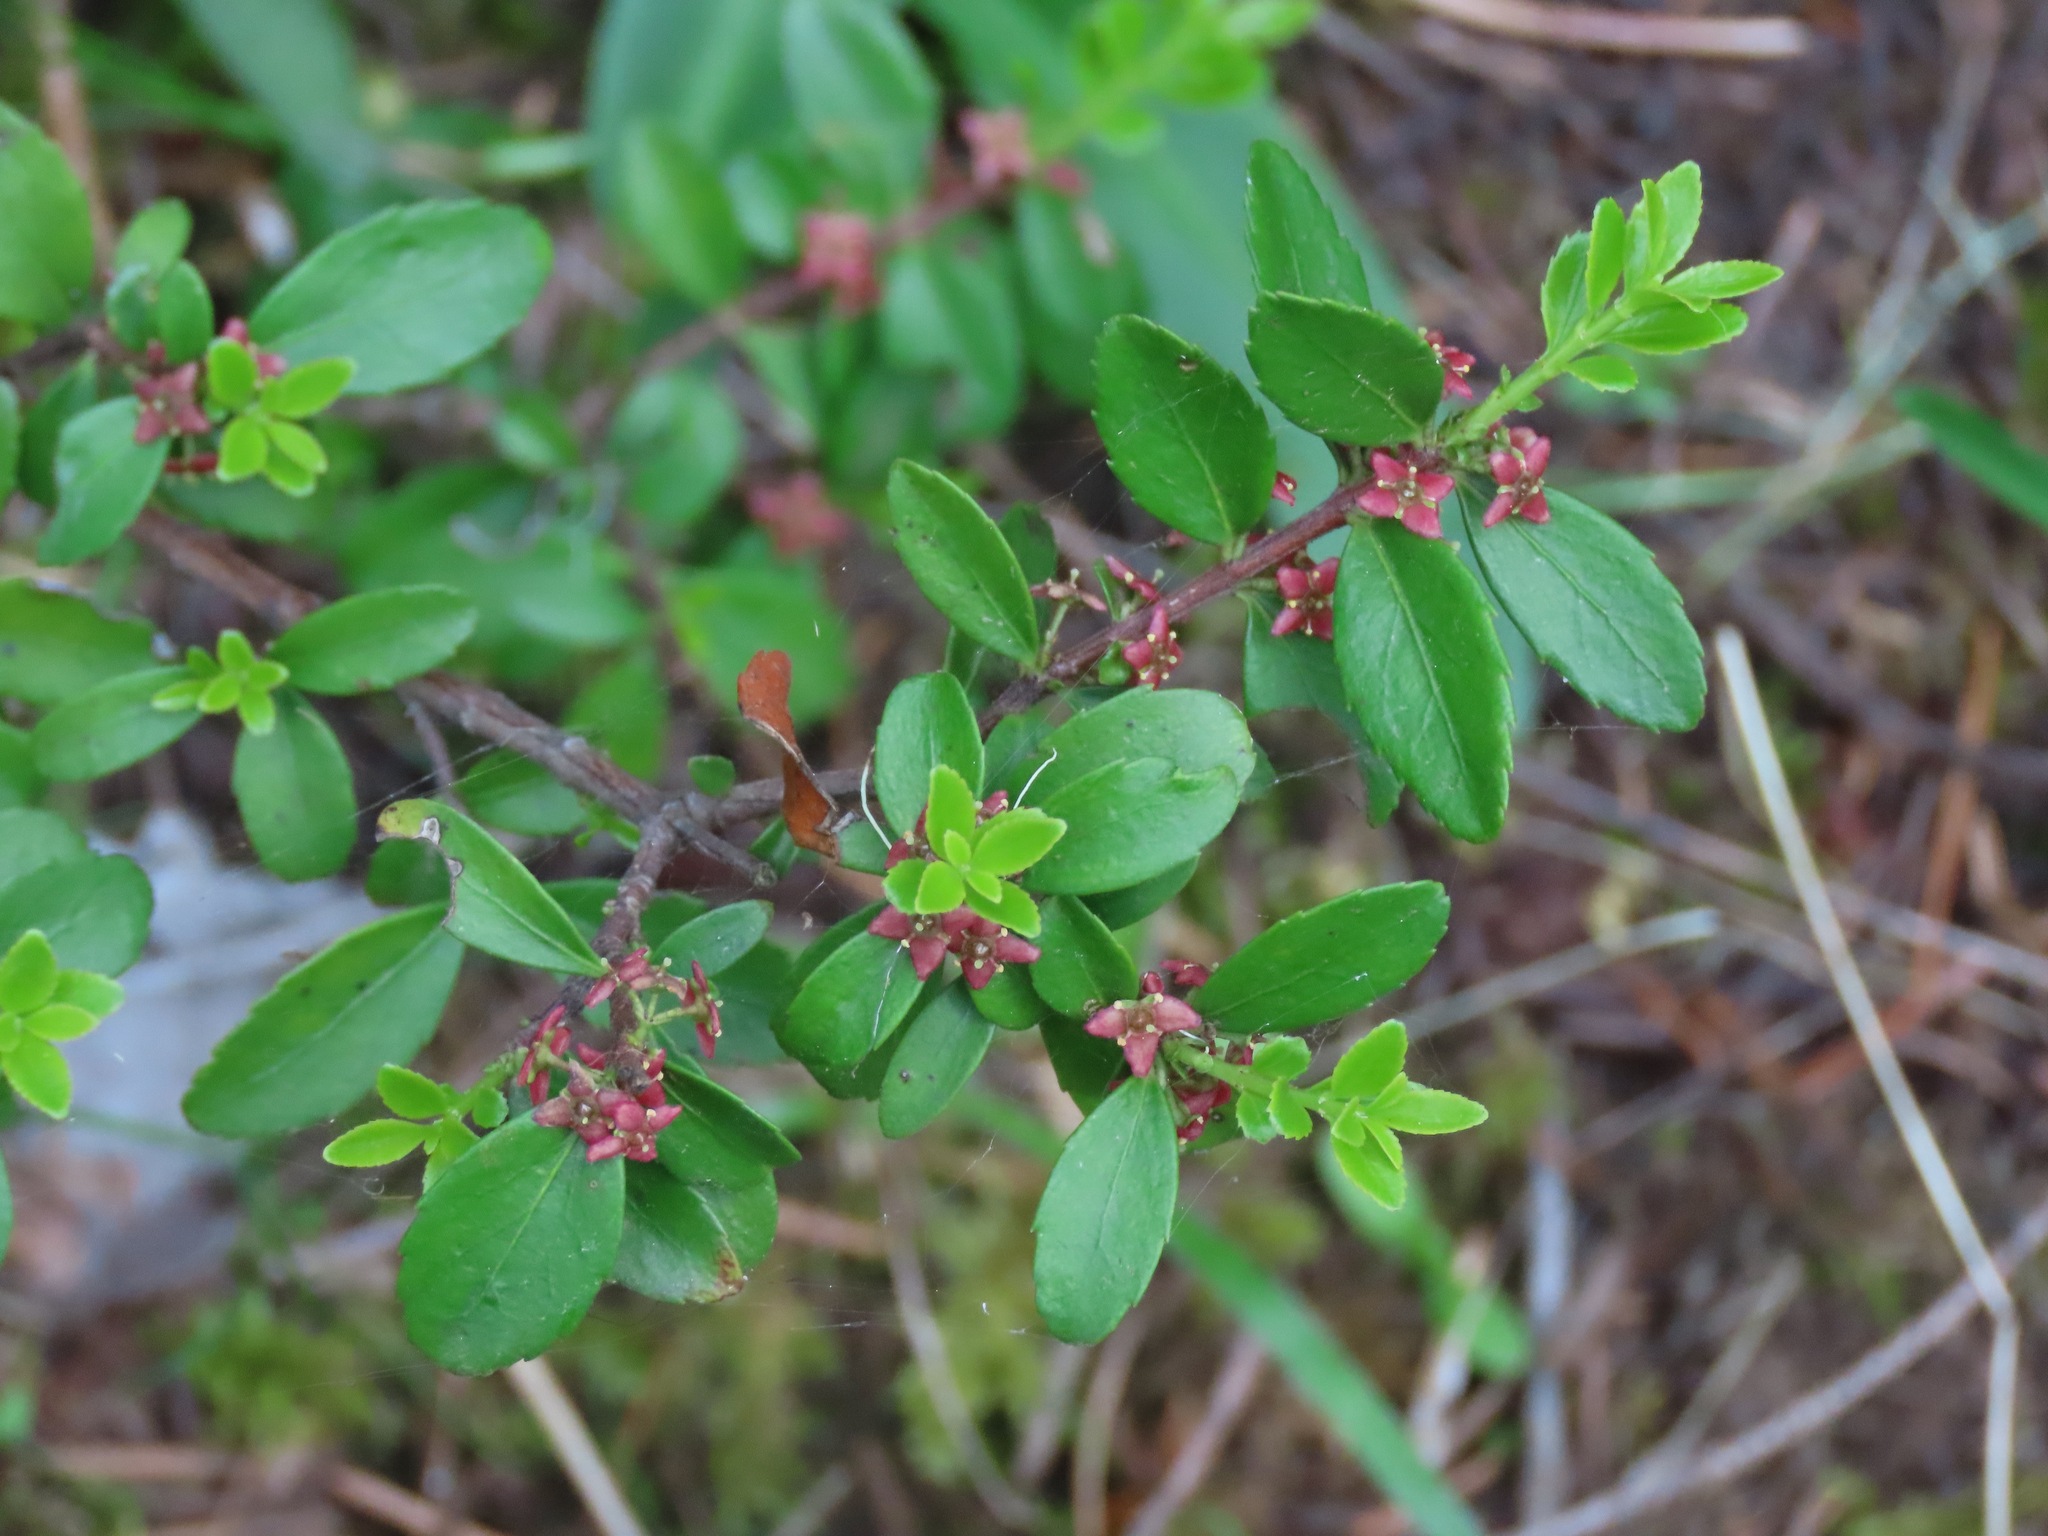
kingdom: Plantae
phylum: Tracheophyta
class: Magnoliopsida
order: Celastrales
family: Celastraceae
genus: Paxistima
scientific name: Paxistima myrsinites
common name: Mountain-lover
